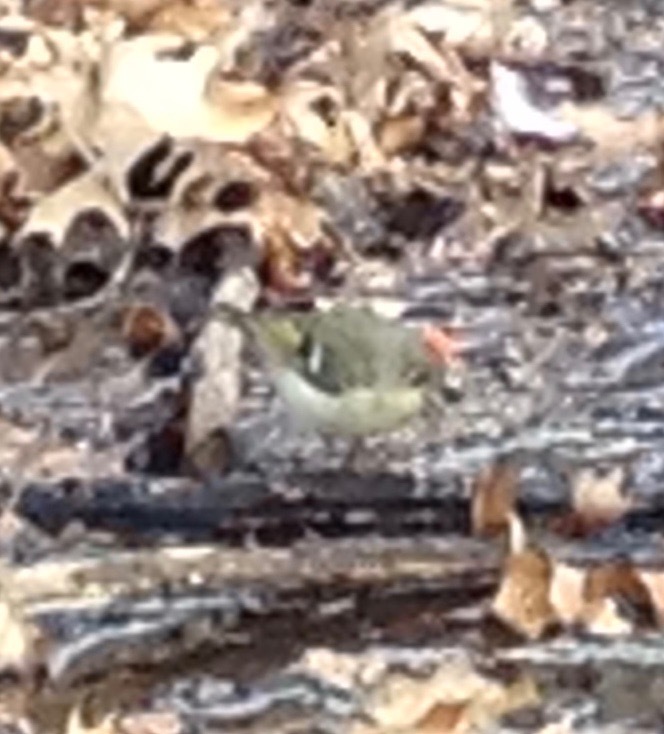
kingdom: Animalia
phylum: Chordata
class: Aves
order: Passeriformes
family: Regulidae
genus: Regulus
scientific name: Regulus calendula
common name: Ruby-crowned kinglet
